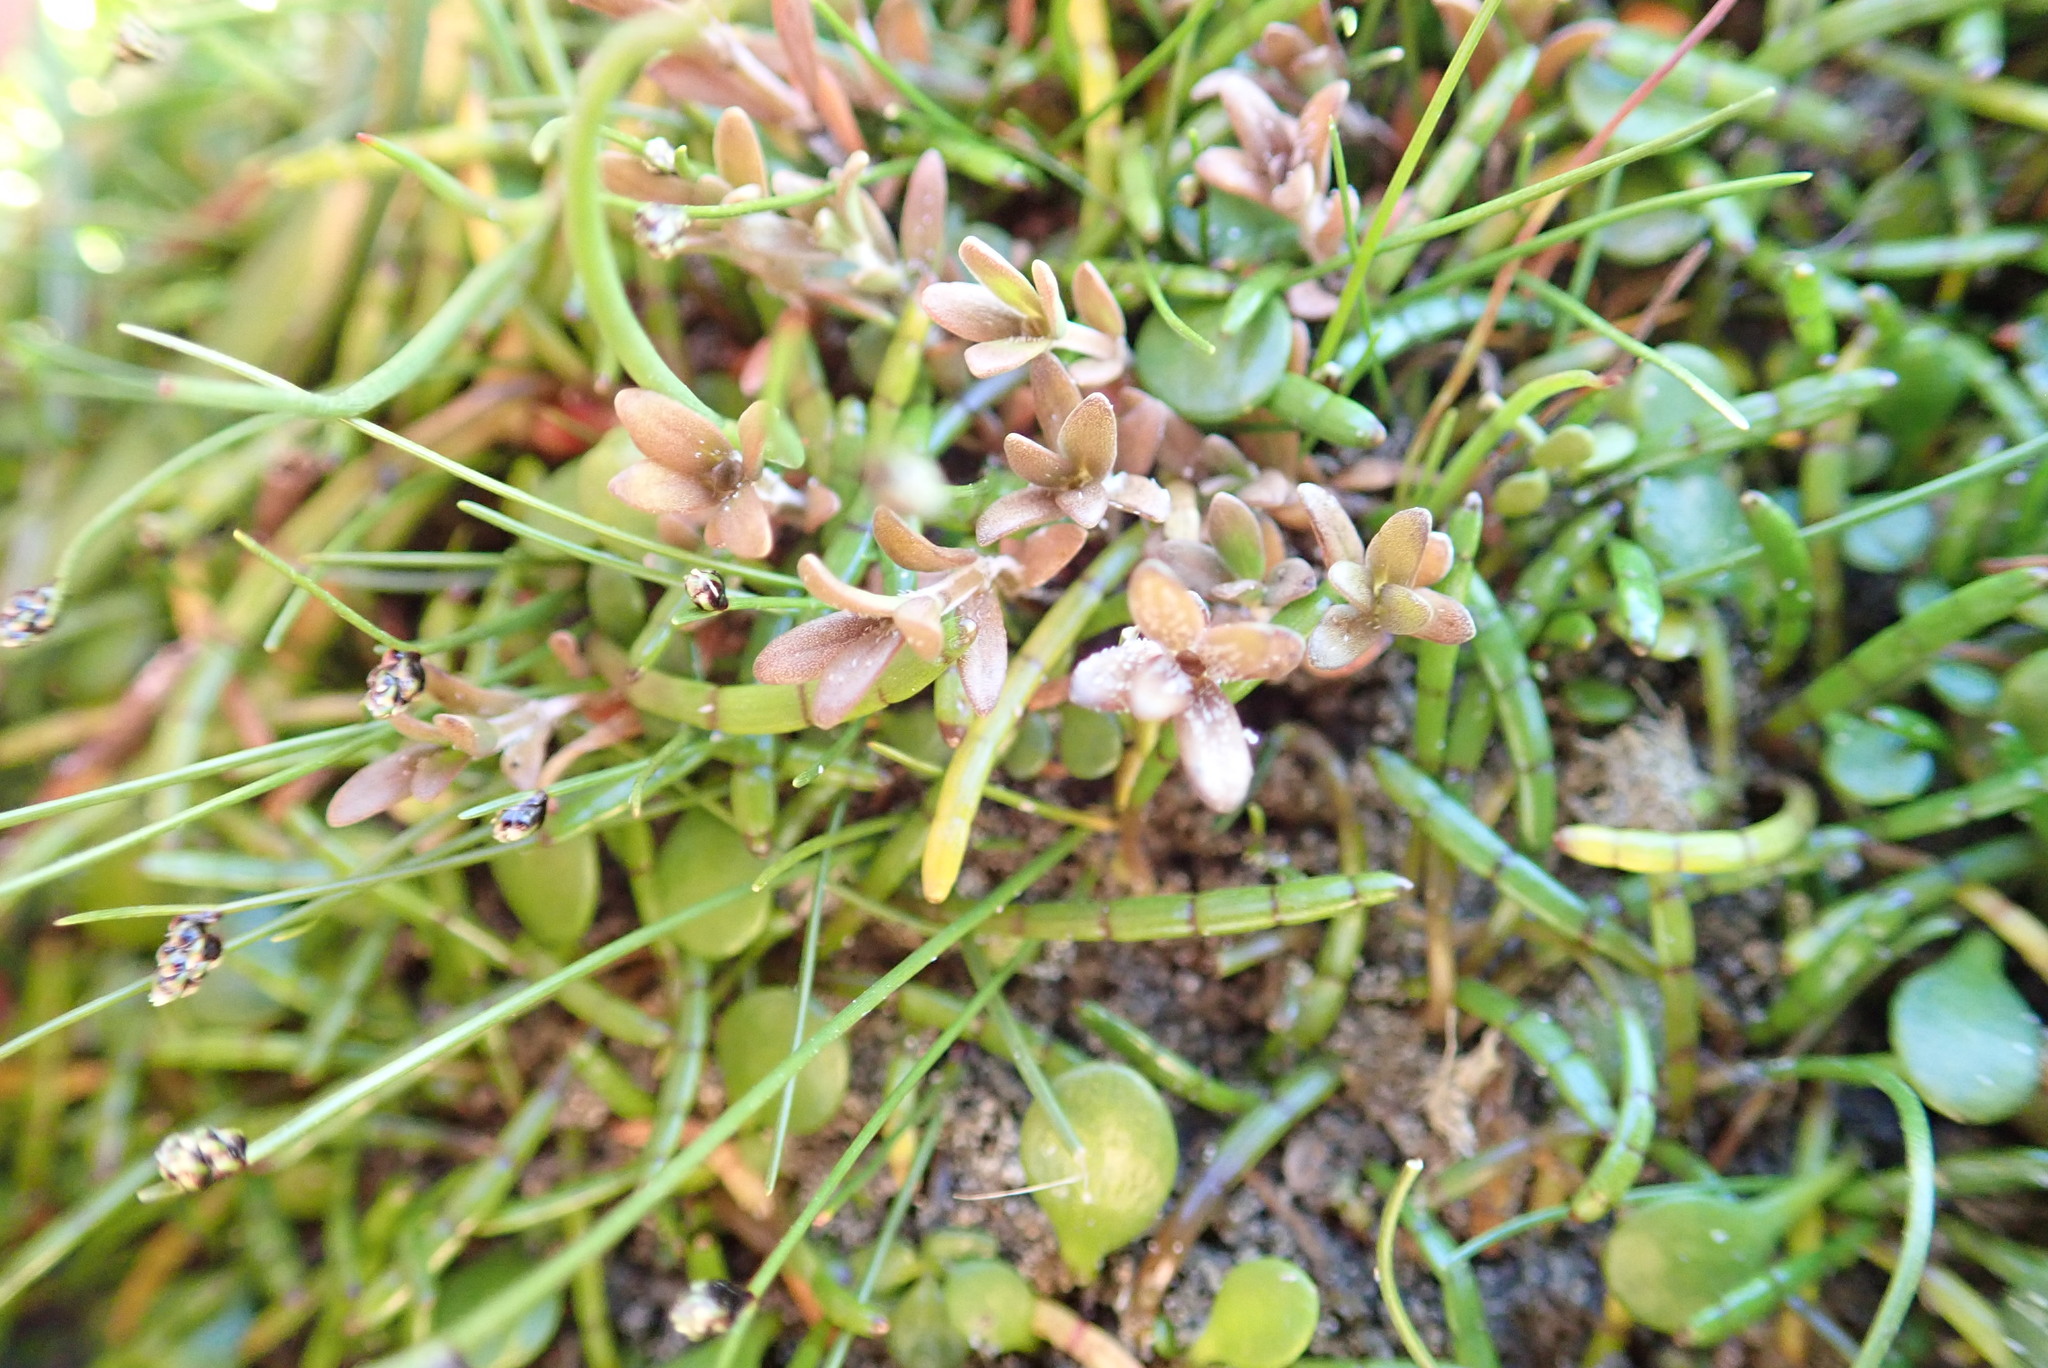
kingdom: Plantae
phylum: Tracheophyta
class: Magnoliopsida
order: Ericales
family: Primulaceae
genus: Samolus
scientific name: Samolus repens
